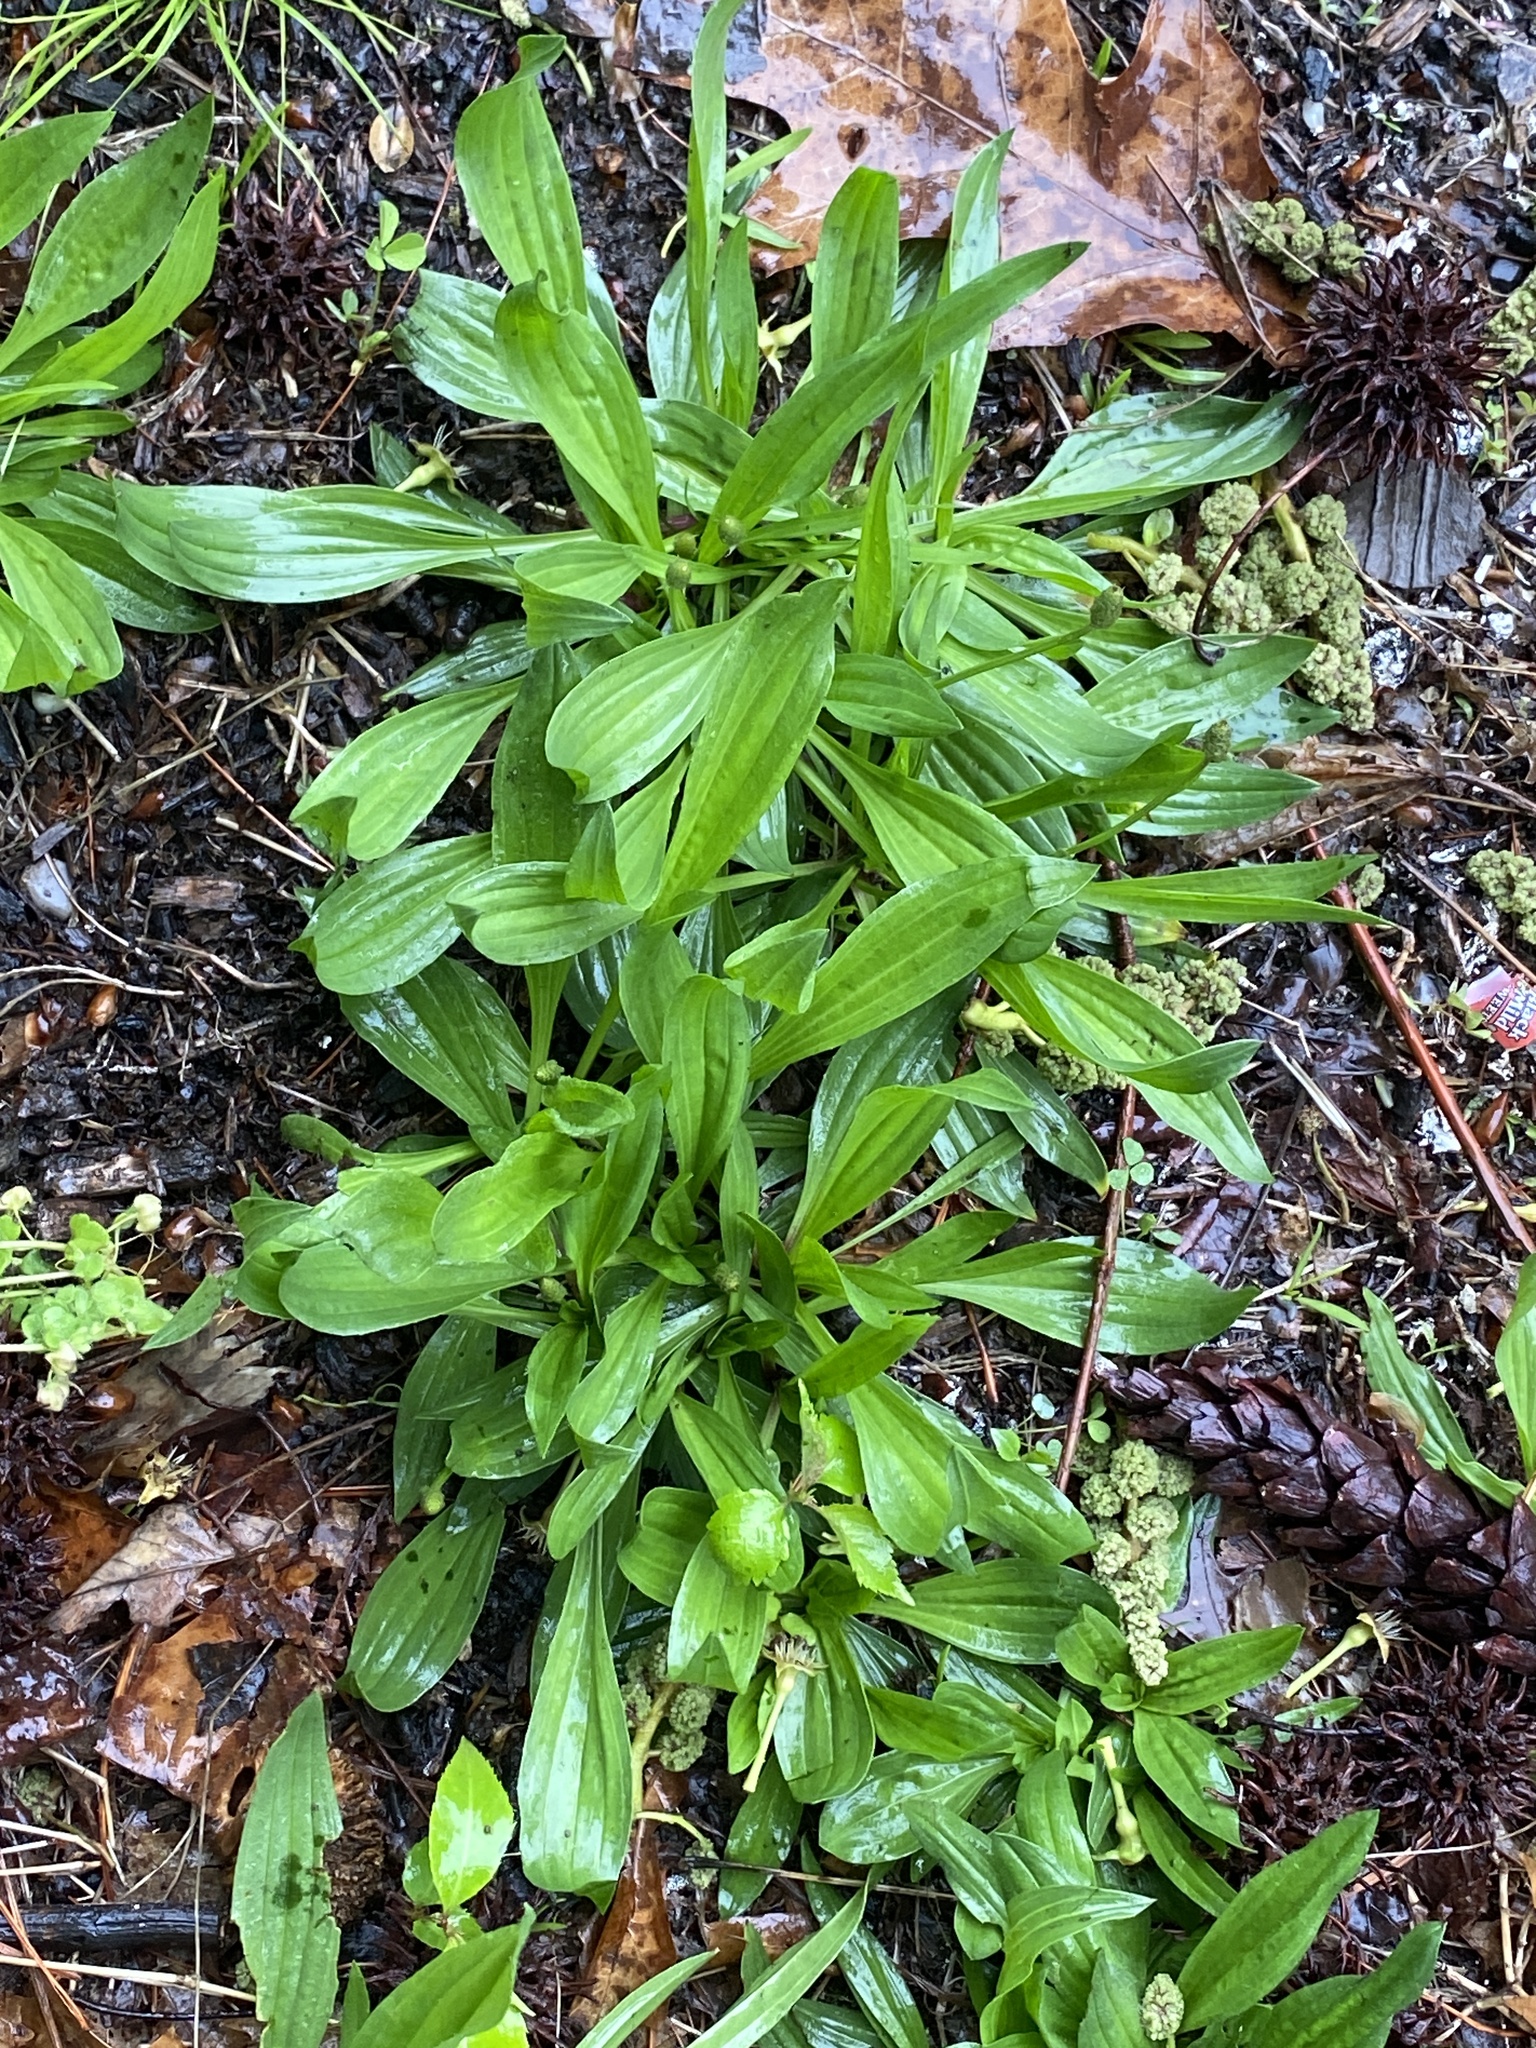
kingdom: Plantae
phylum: Tracheophyta
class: Magnoliopsida
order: Lamiales
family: Plantaginaceae
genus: Plantago
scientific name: Plantago lanceolata
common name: Ribwort plantain
